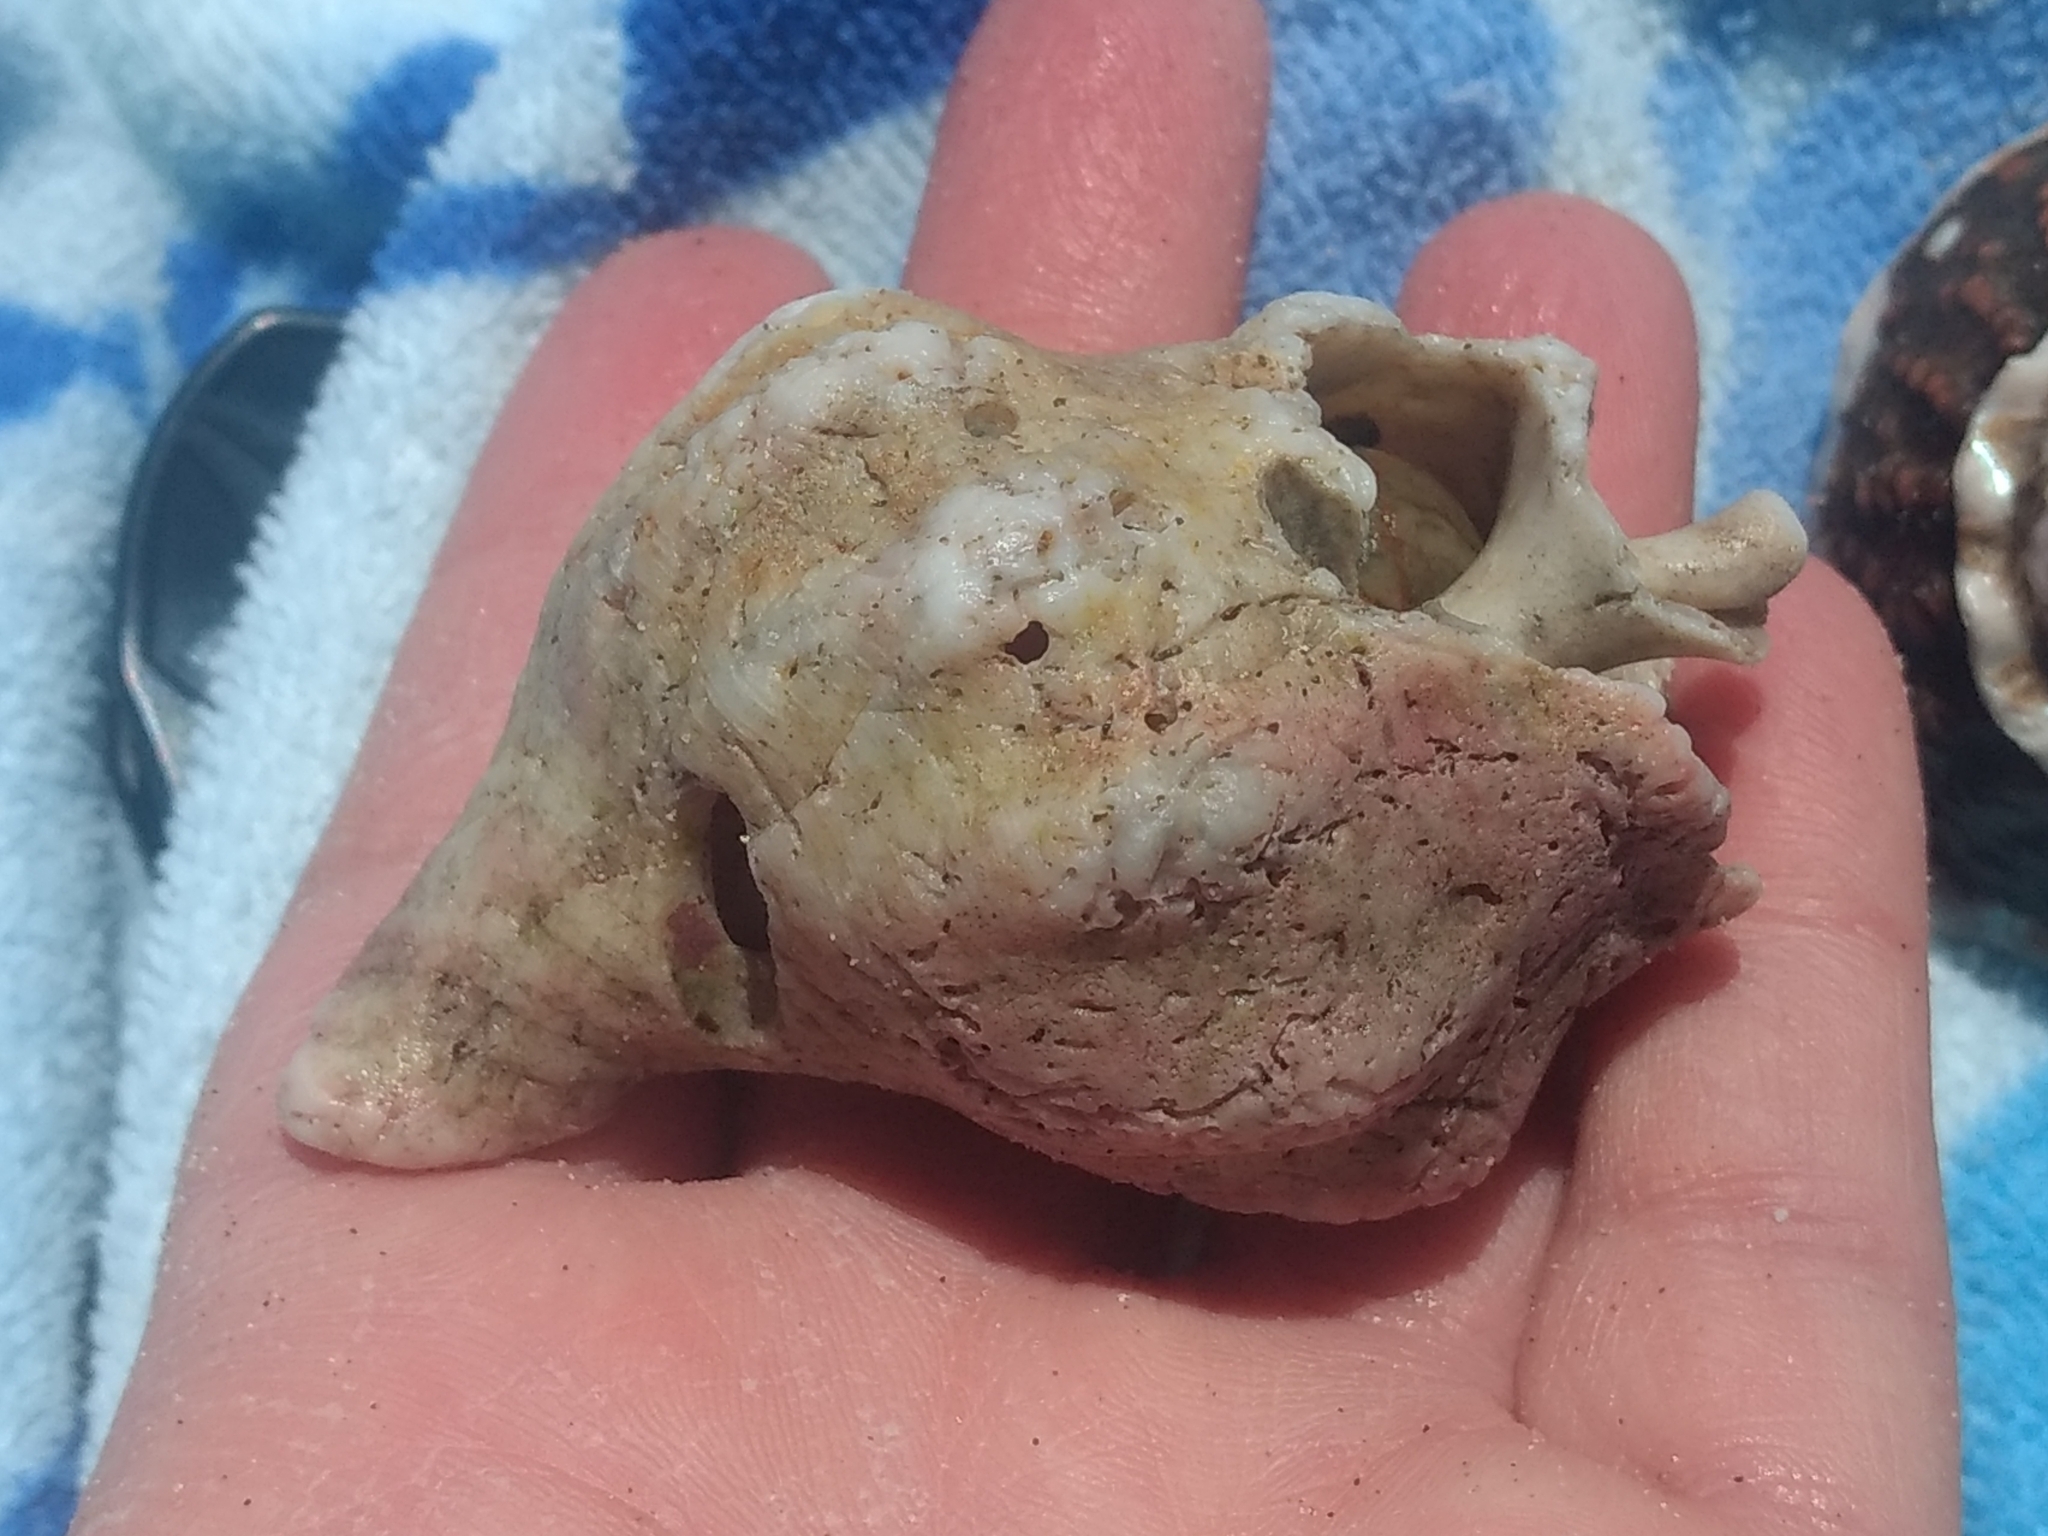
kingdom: Animalia
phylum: Mollusca
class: Gastropoda
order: Neogastropoda
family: Austrosiphonidae
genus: Kelletia
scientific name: Kelletia kelletii
